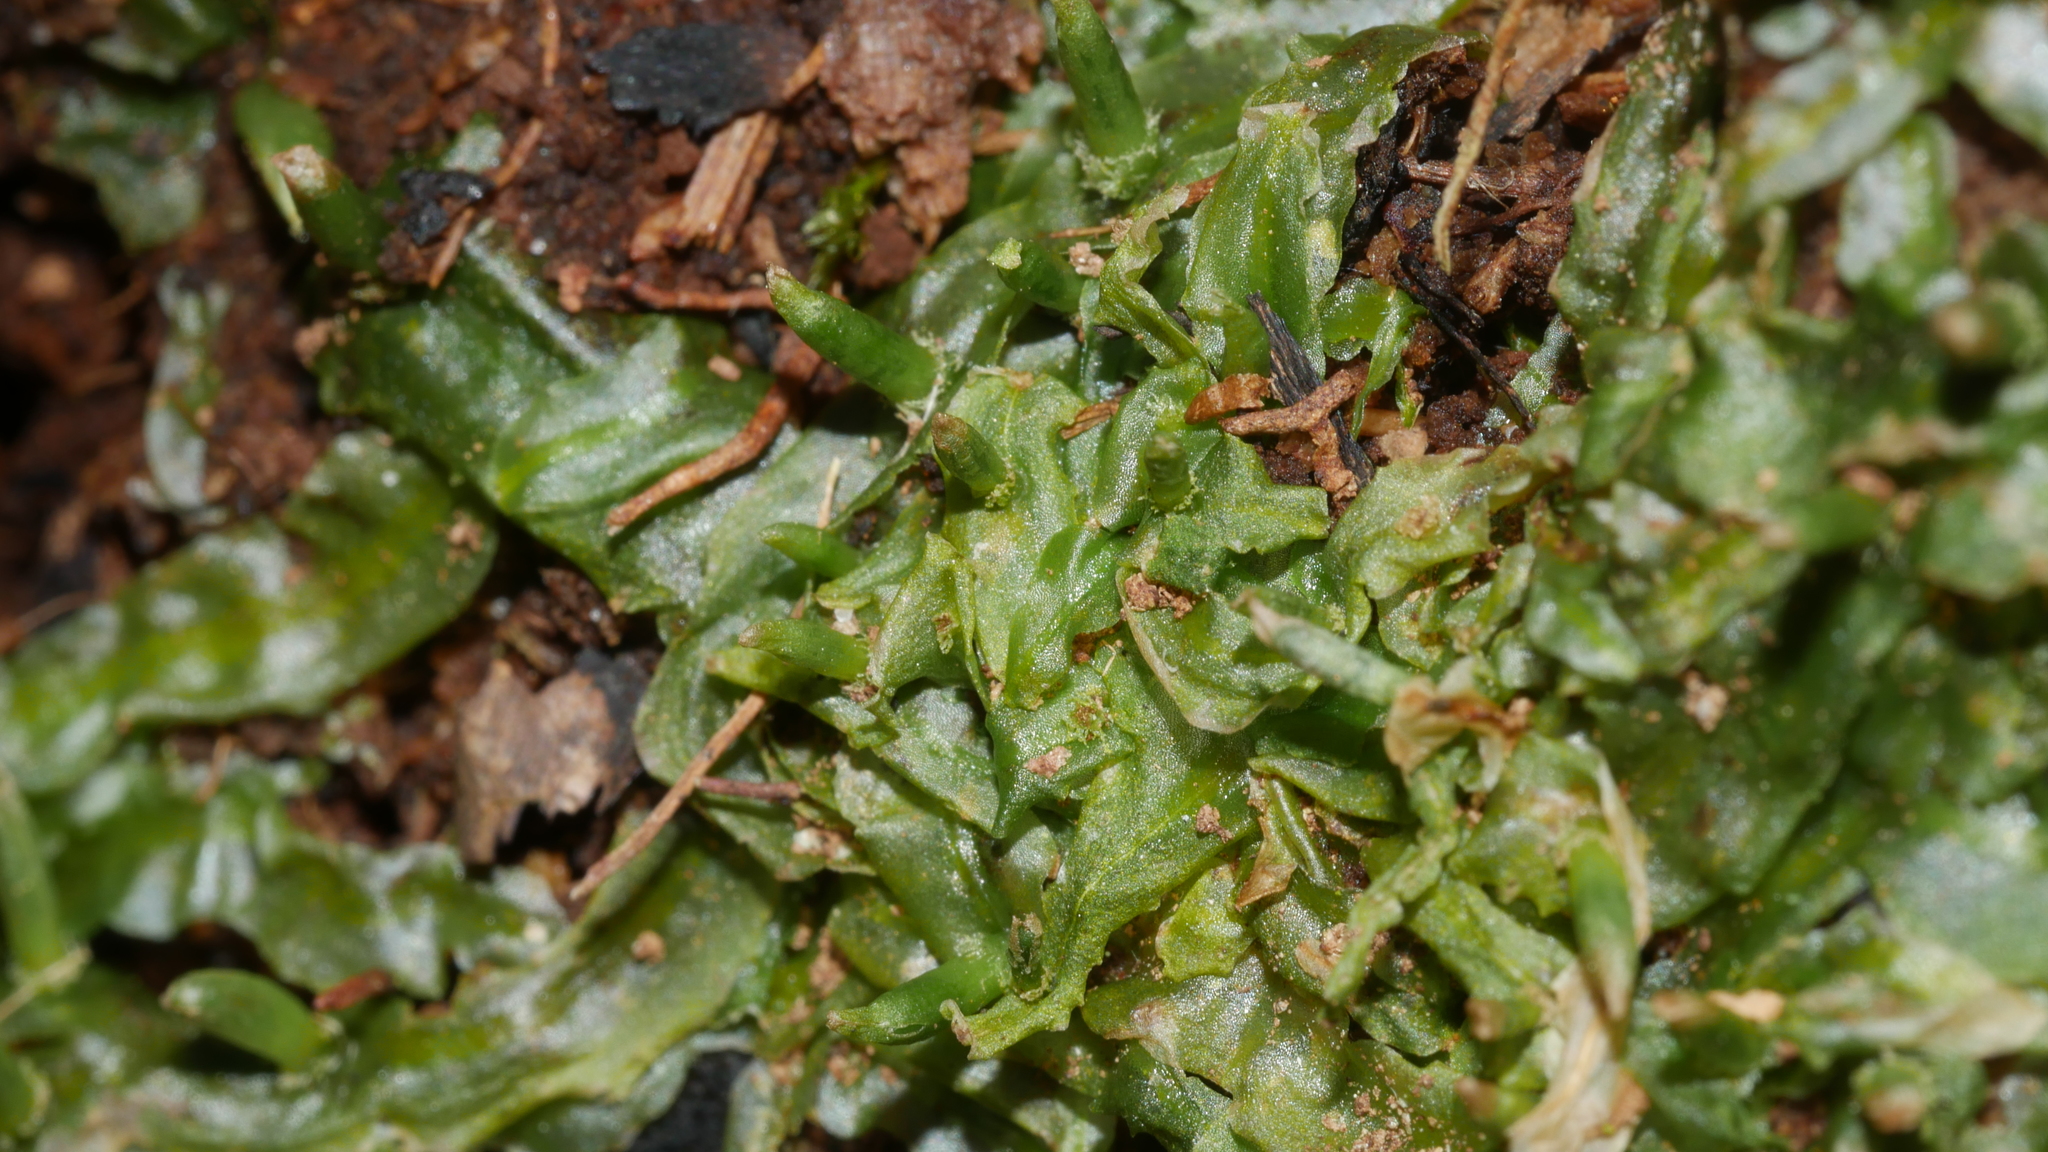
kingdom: Plantae
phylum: Marchantiophyta
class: Jungermanniopsida
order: Pallaviciniales
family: Pallaviciniaceae
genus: Pallavicinia
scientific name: Pallavicinia lyellii
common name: Veilwort
